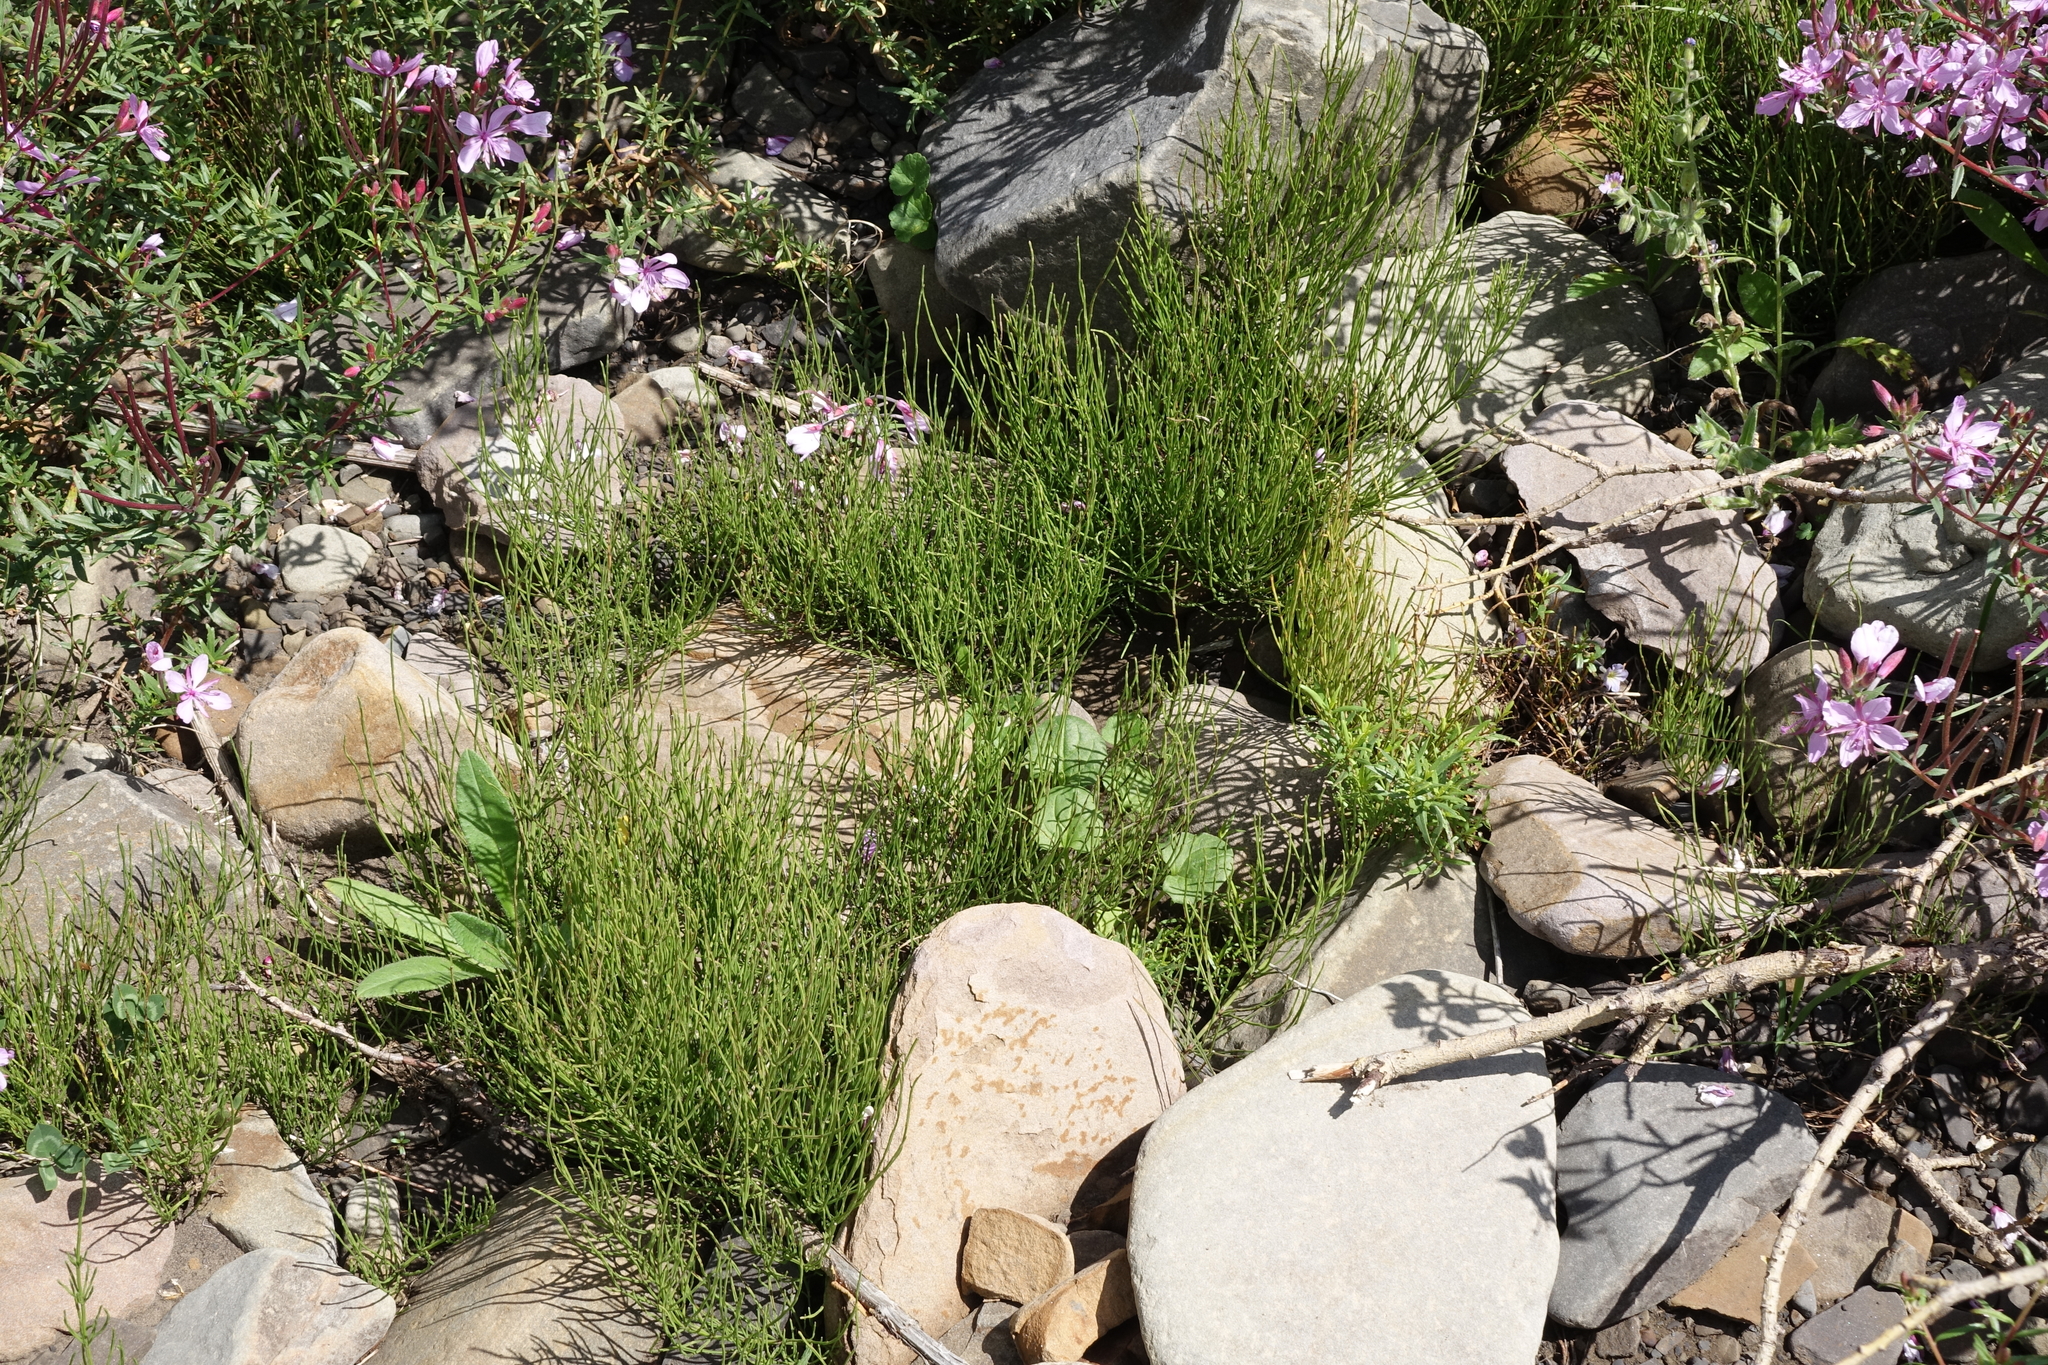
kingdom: Plantae
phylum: Tracheophyta
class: Polypodiopsida
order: Equisetales
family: Equisetaceae
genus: Equisetum
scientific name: Equisetum arvense
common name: Field horsetail
